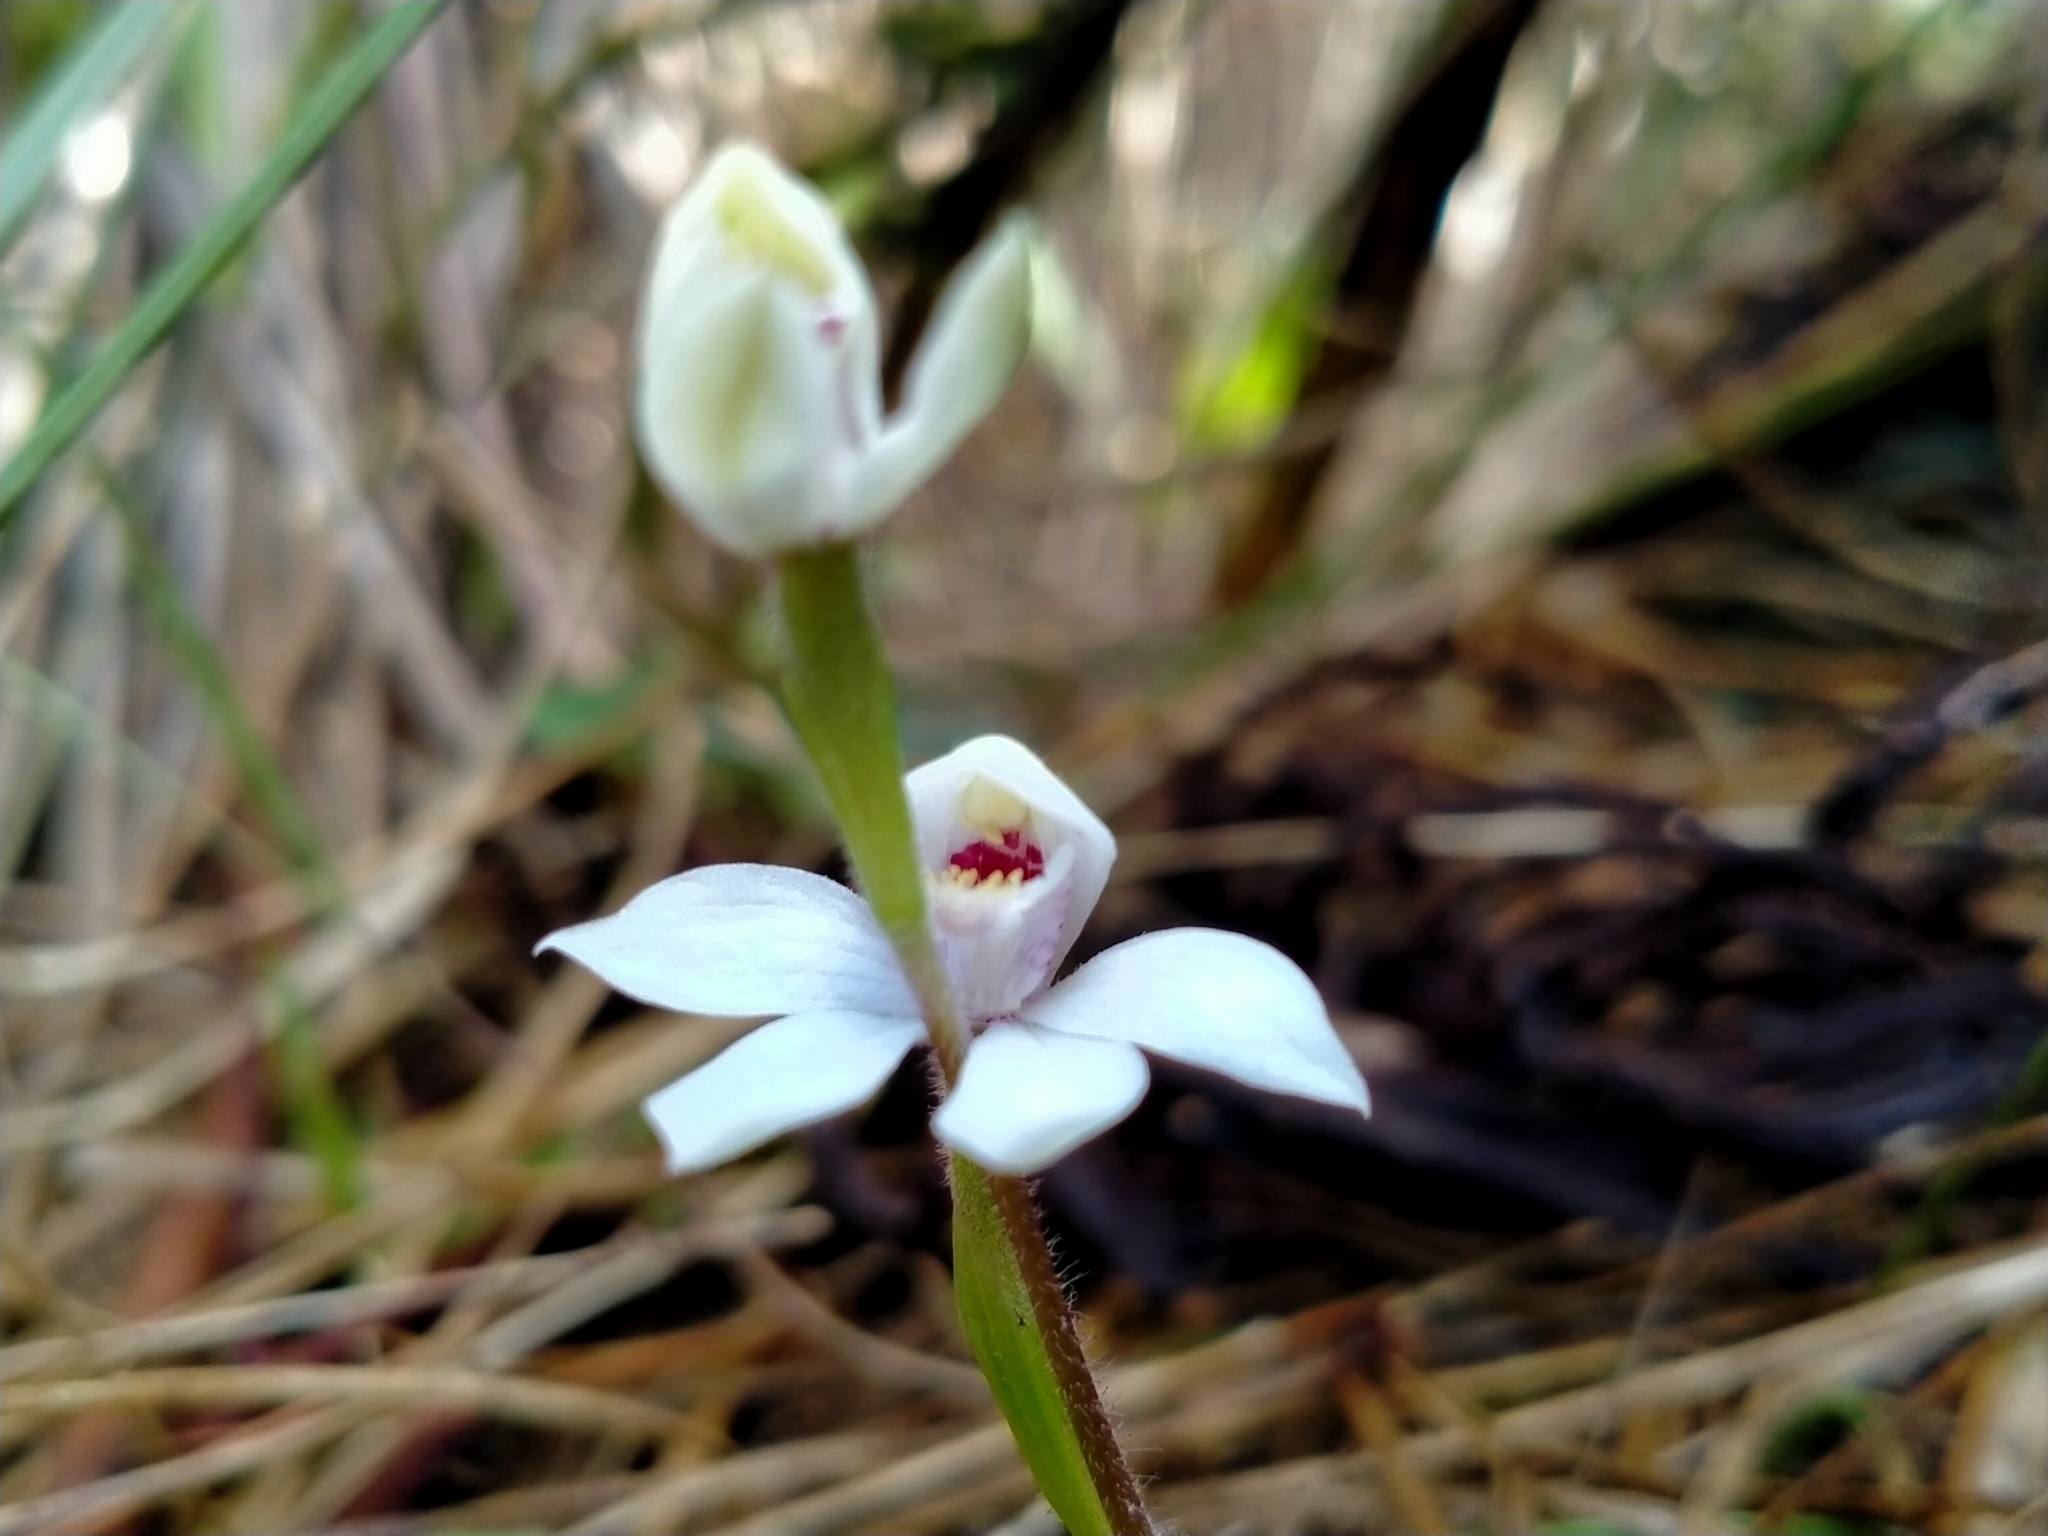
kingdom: Plantae
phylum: Tracheophyta
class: Liliopsida
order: Asparagales
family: Orchidaceae
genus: Caladenia
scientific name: Caladenia lyallii
